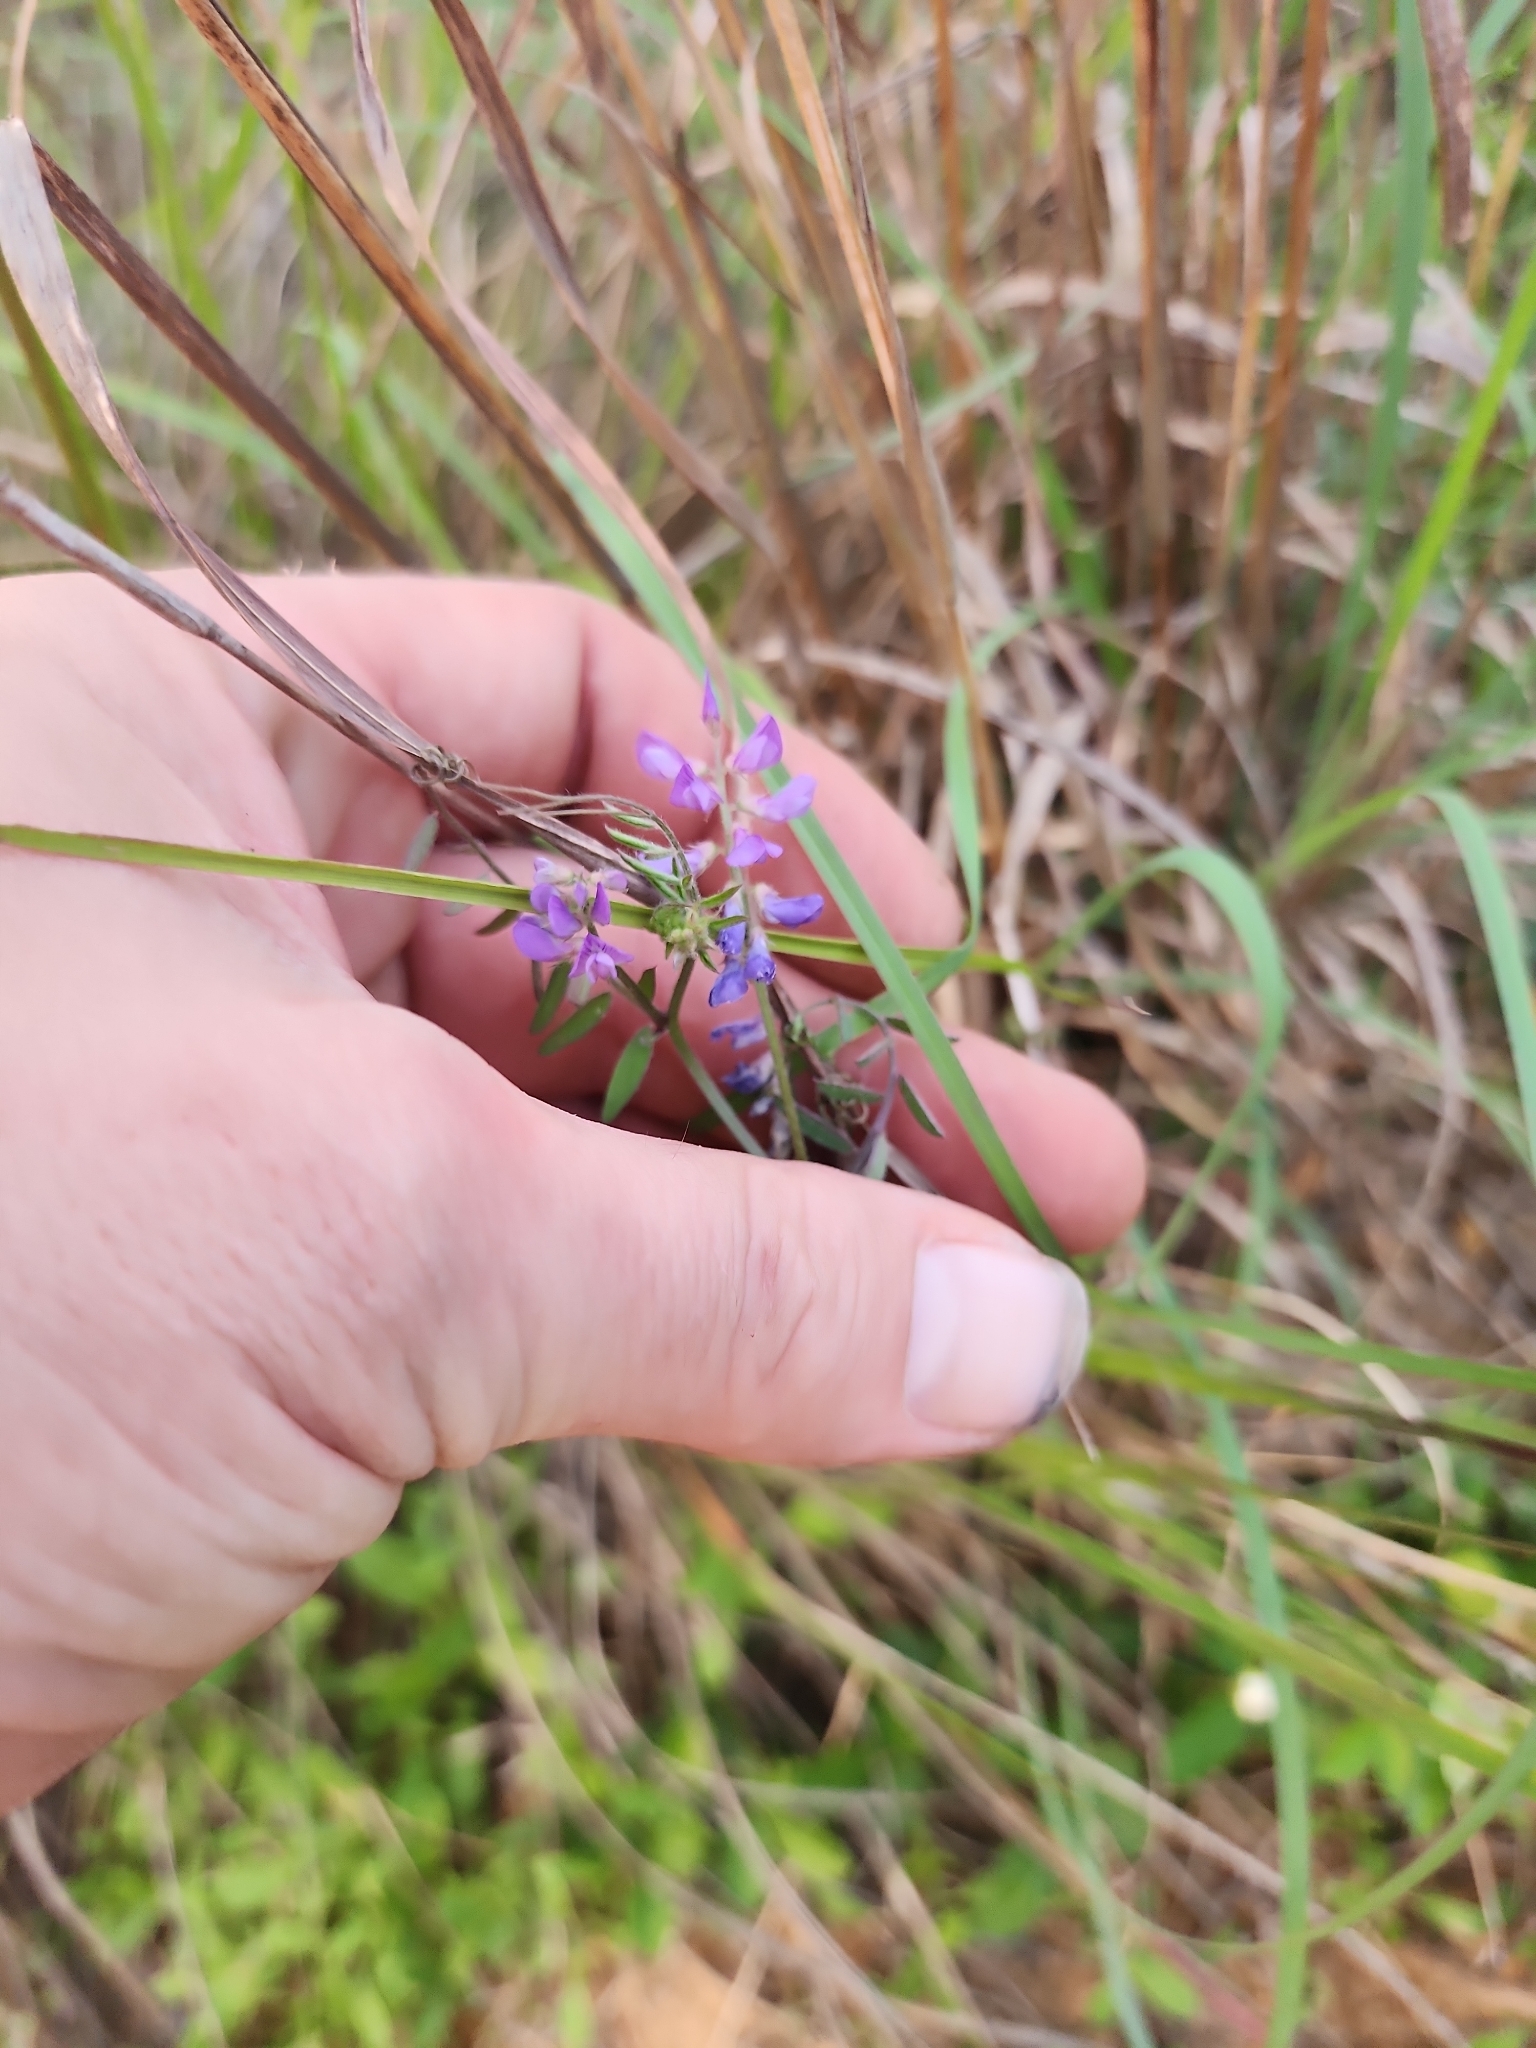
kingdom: Plantae
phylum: Tracheophyta
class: Magnoliopsida
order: Fabales
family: Fabaceae
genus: Vicia
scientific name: Vicia ludoviciana
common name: Louisiana vetch
